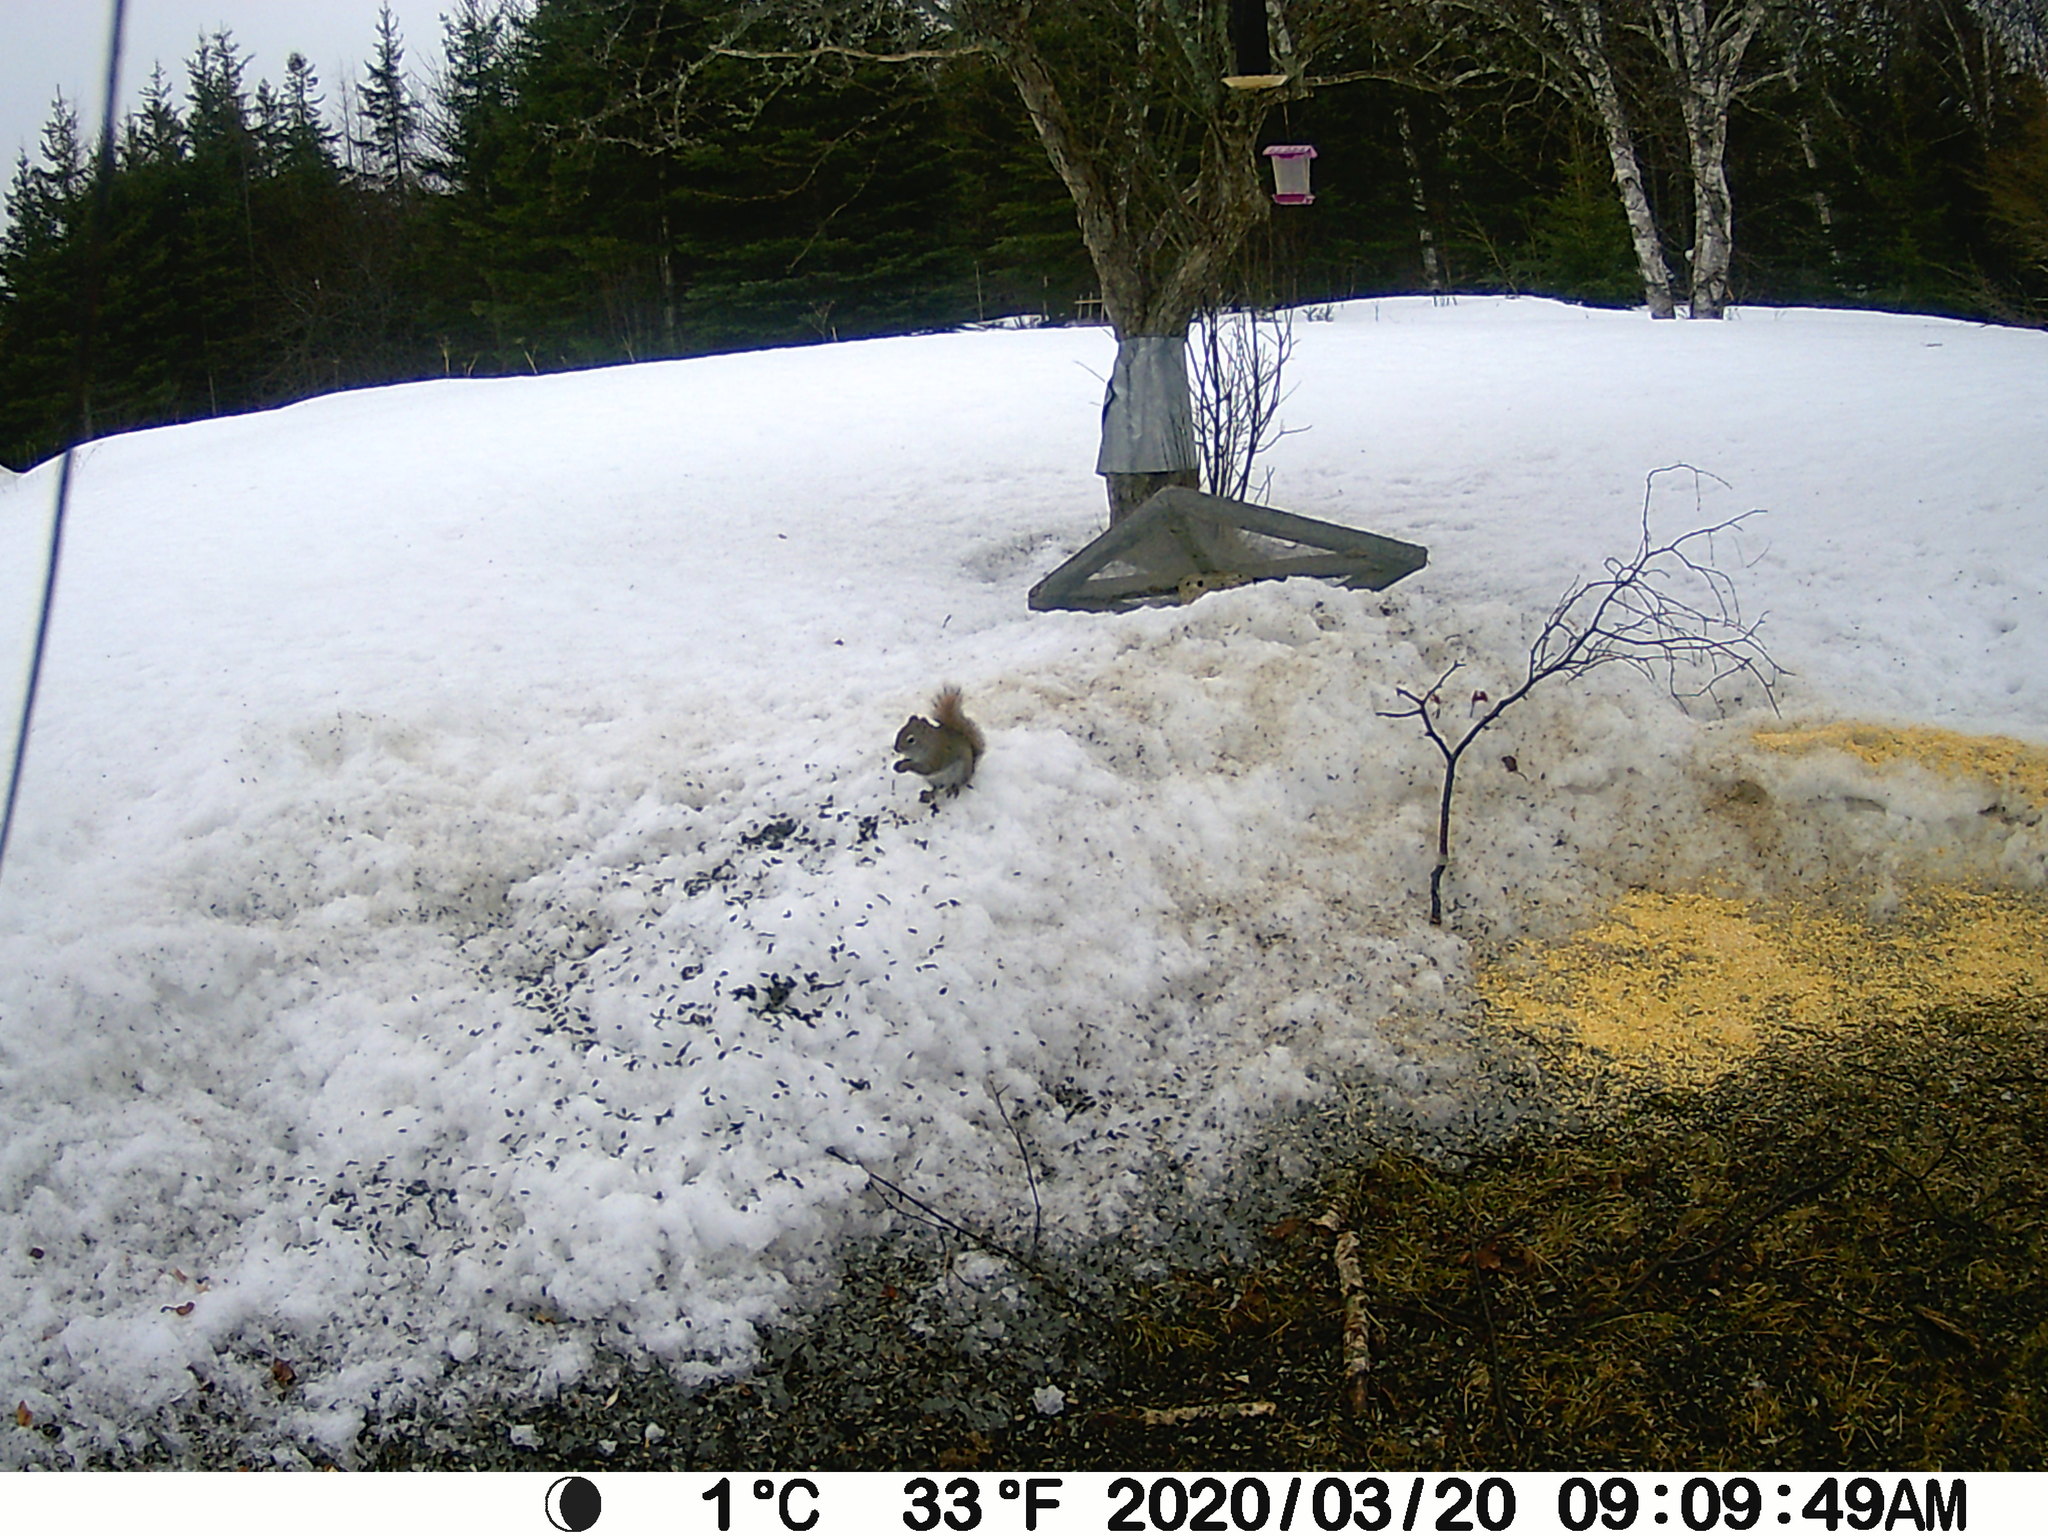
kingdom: Animalia
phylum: Chordata
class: Mammalia
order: Rodentia
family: Sciuridae
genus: Tamiasciurus
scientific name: Tamiasciurus hudsonicus
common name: Red squirrel
